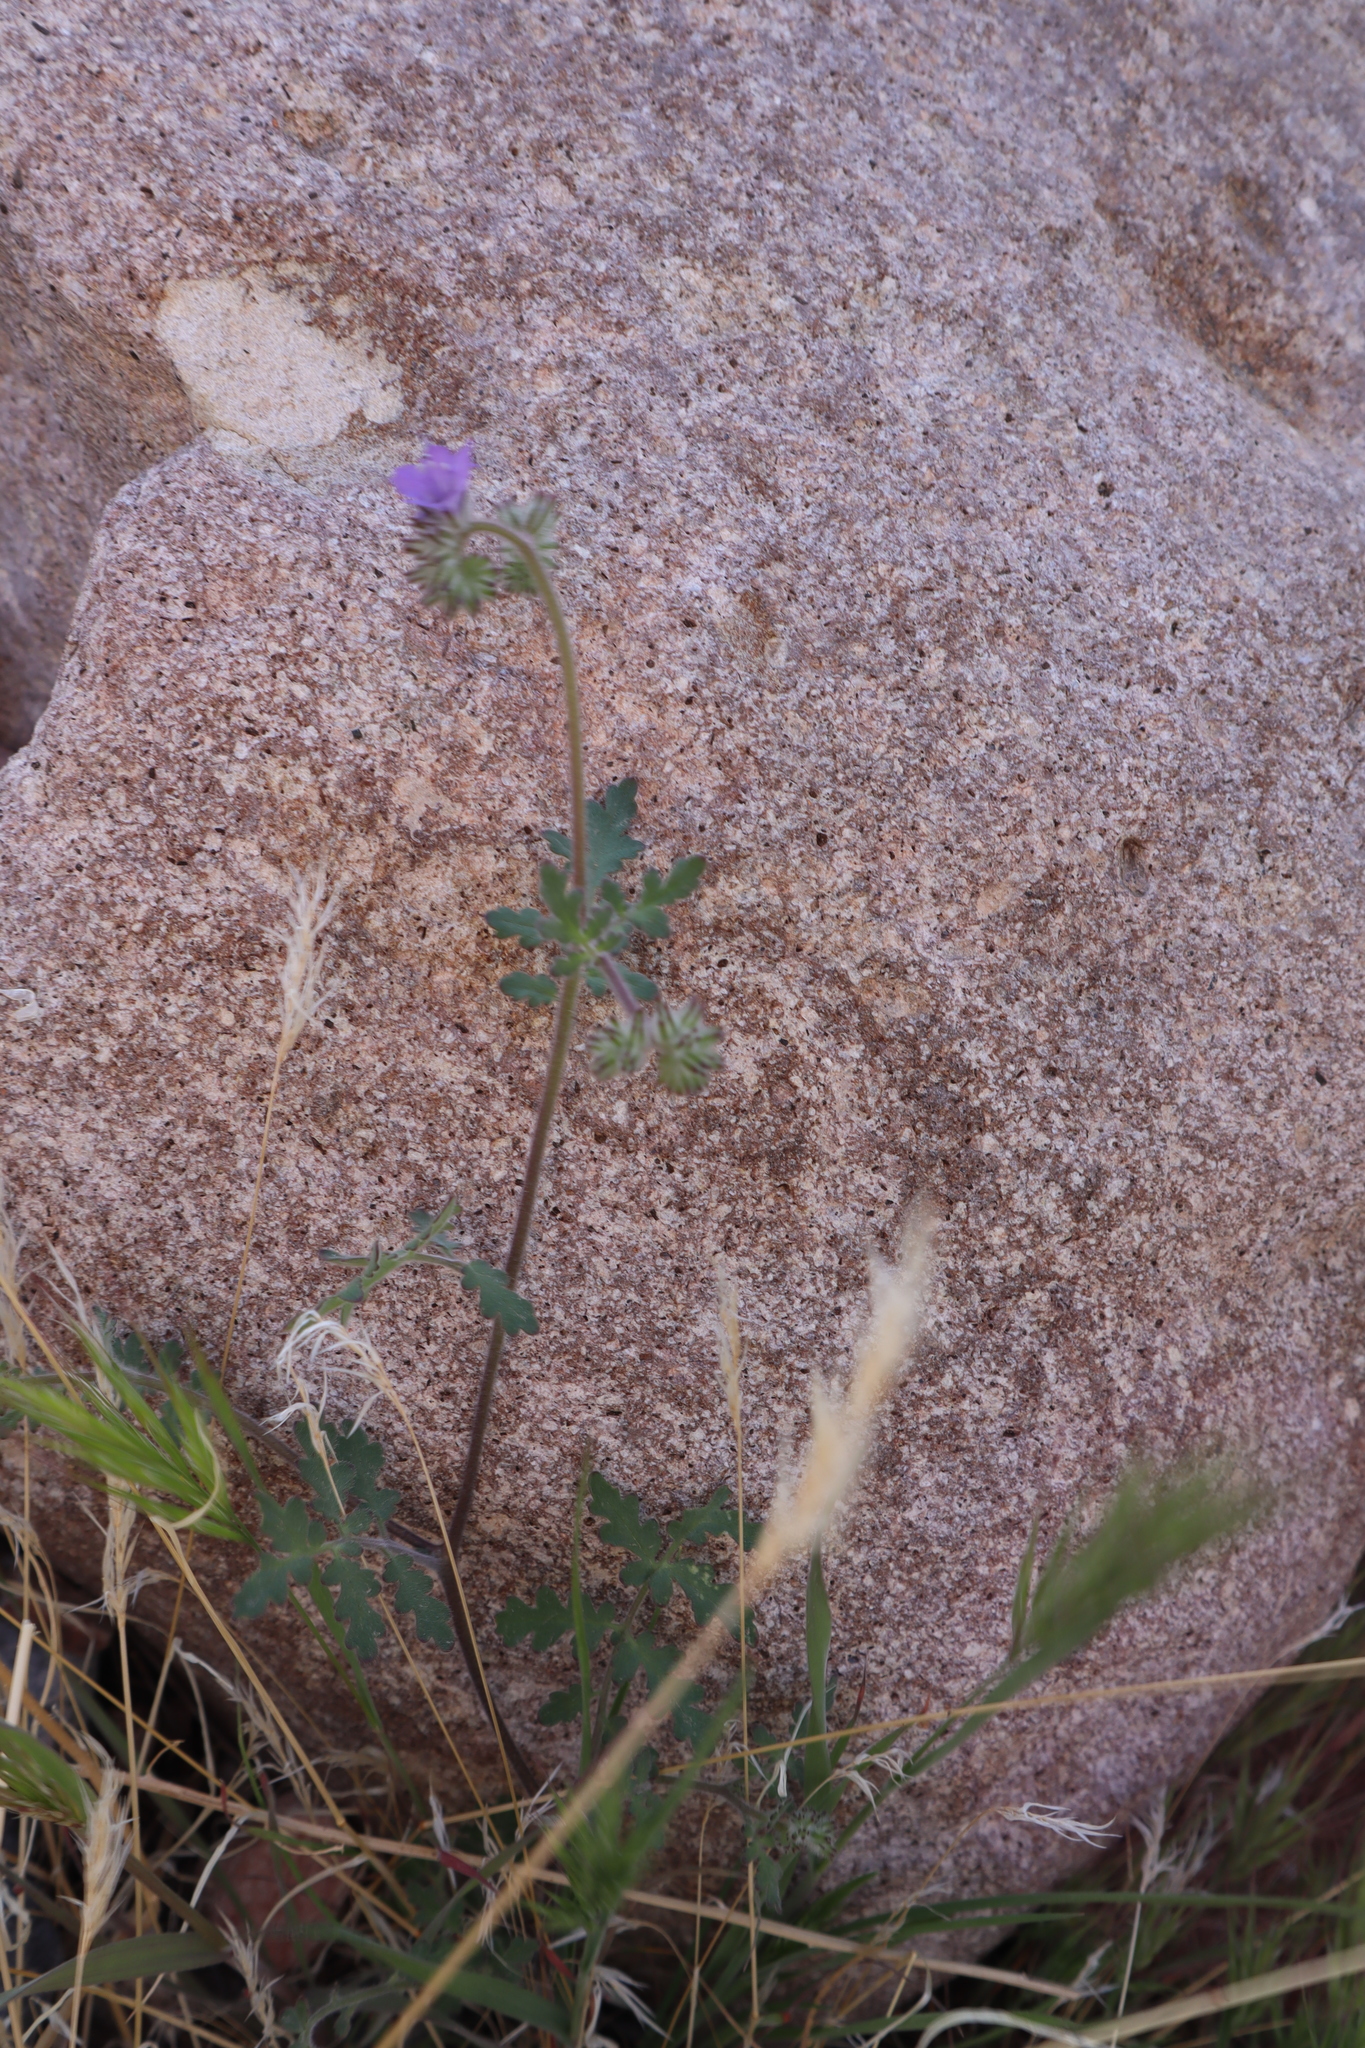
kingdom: Plantae
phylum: Tracheophyta
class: Magnoliopsida
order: Boraginales
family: Hydrophyllaceae
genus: Phacelia
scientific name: Phacelia distans
